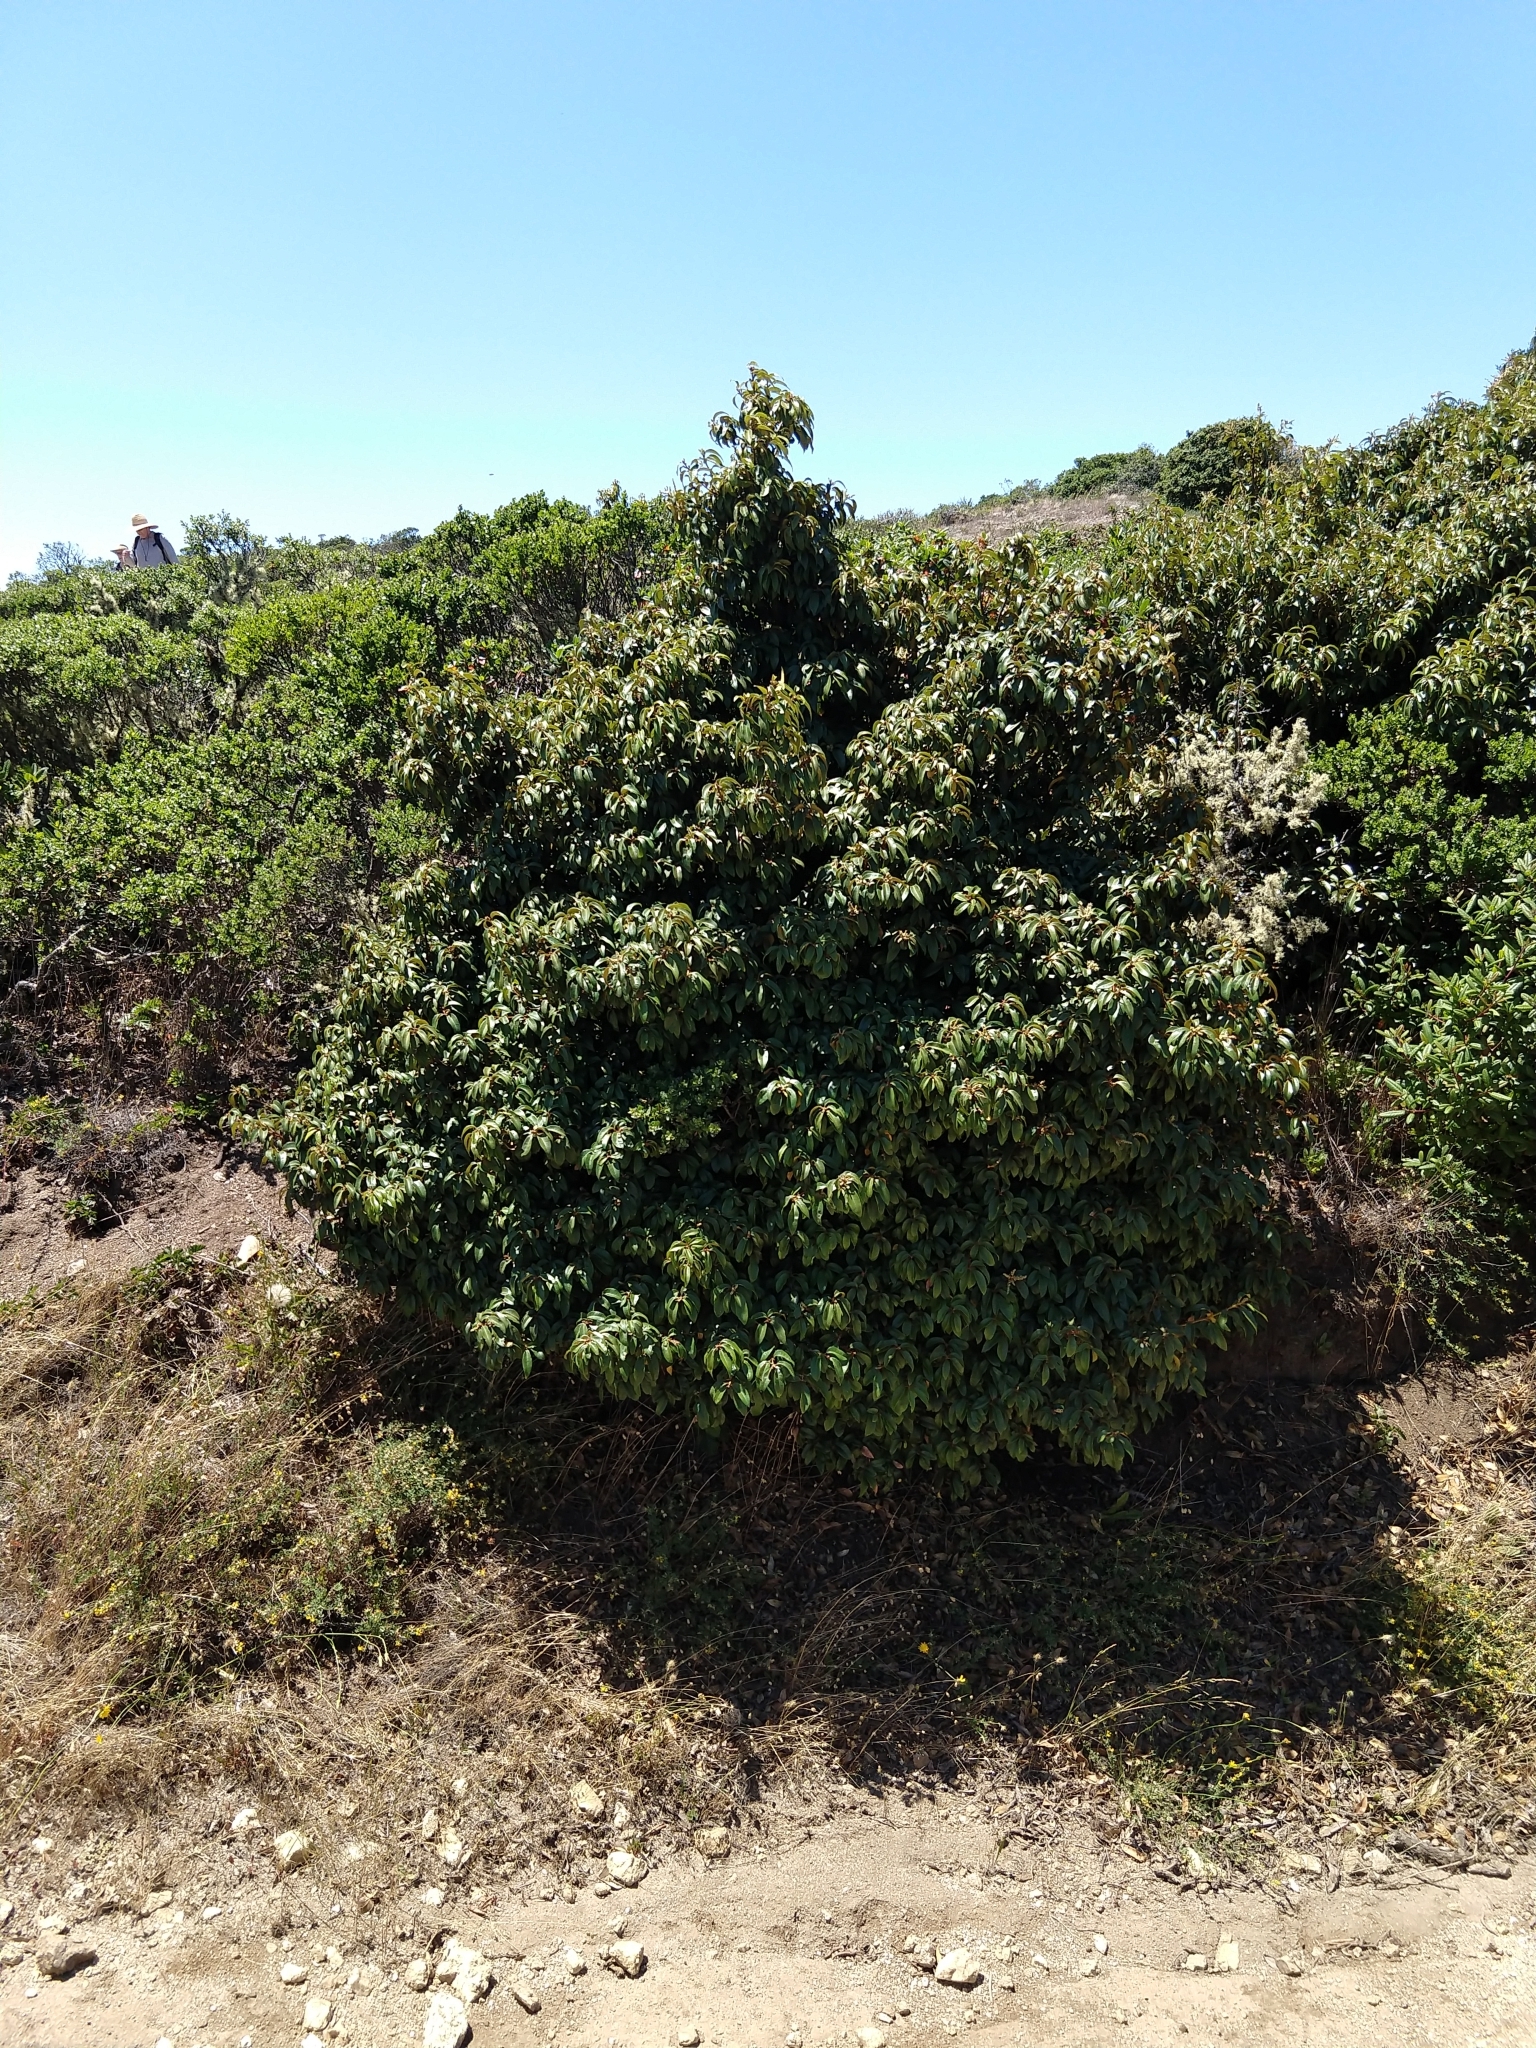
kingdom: Plantae
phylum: Tracheophyta
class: Magnoliopsida
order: Fagales
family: Fagaceae
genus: Chrysolepis
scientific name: Chrysolepis chrysophylla
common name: Giant chinquapin
